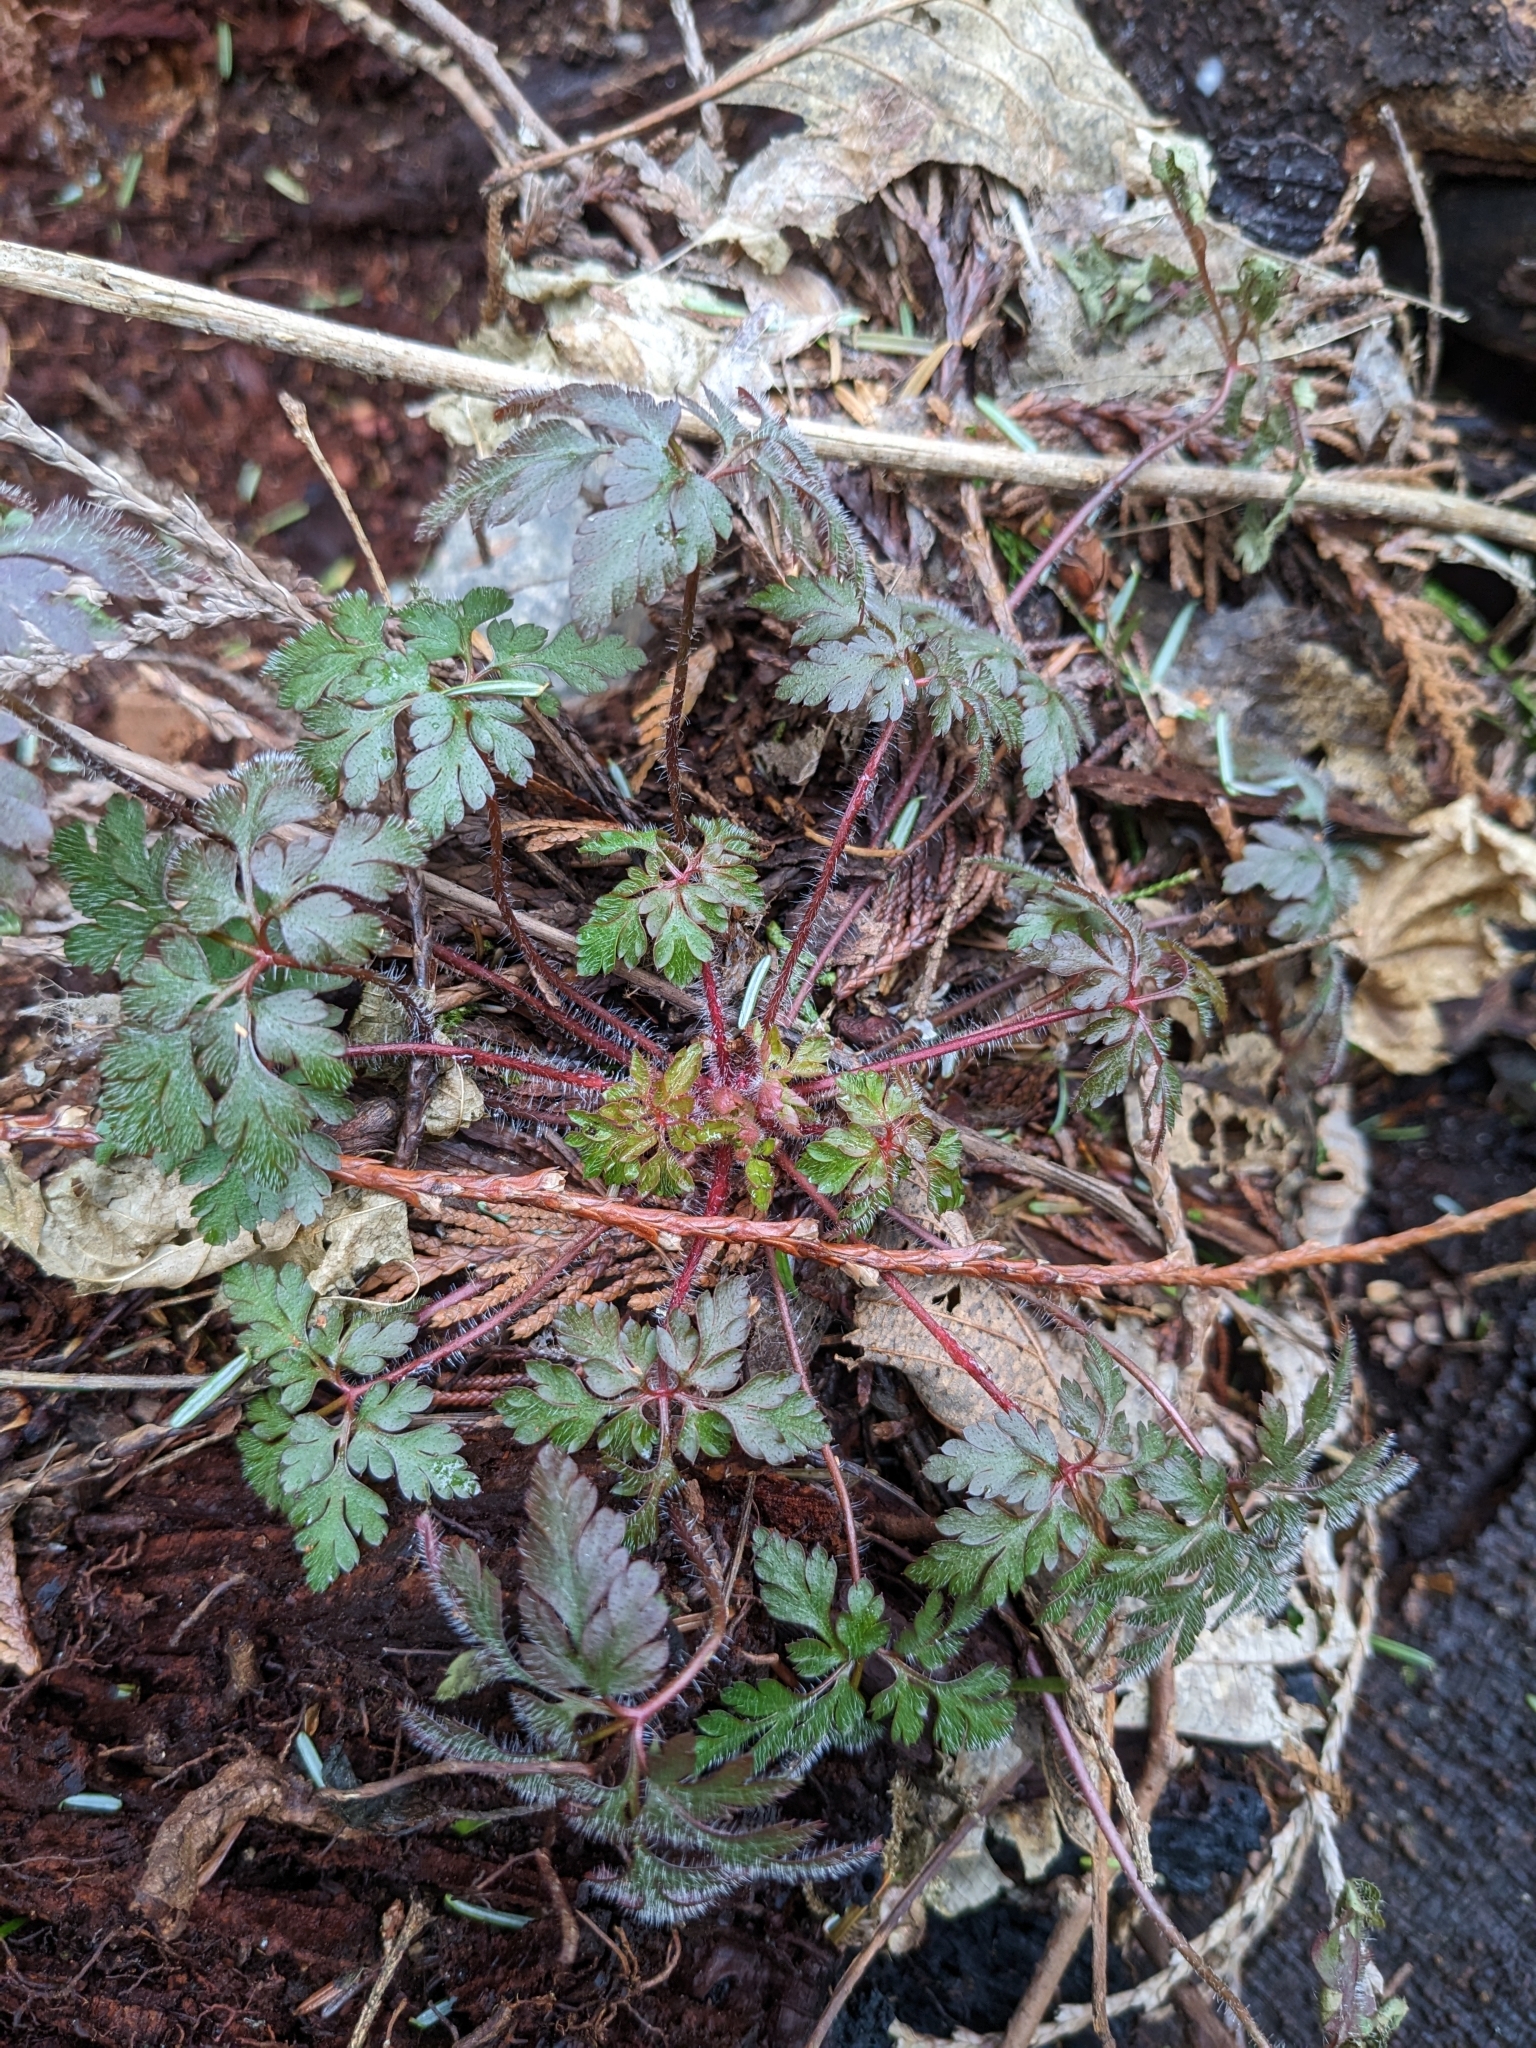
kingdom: Plantae
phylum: Tracheophyta
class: Magnoliopsida
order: Geraniales
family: Geraniaceae
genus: Geranium
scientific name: Geranium robertianum
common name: Herb-robert
